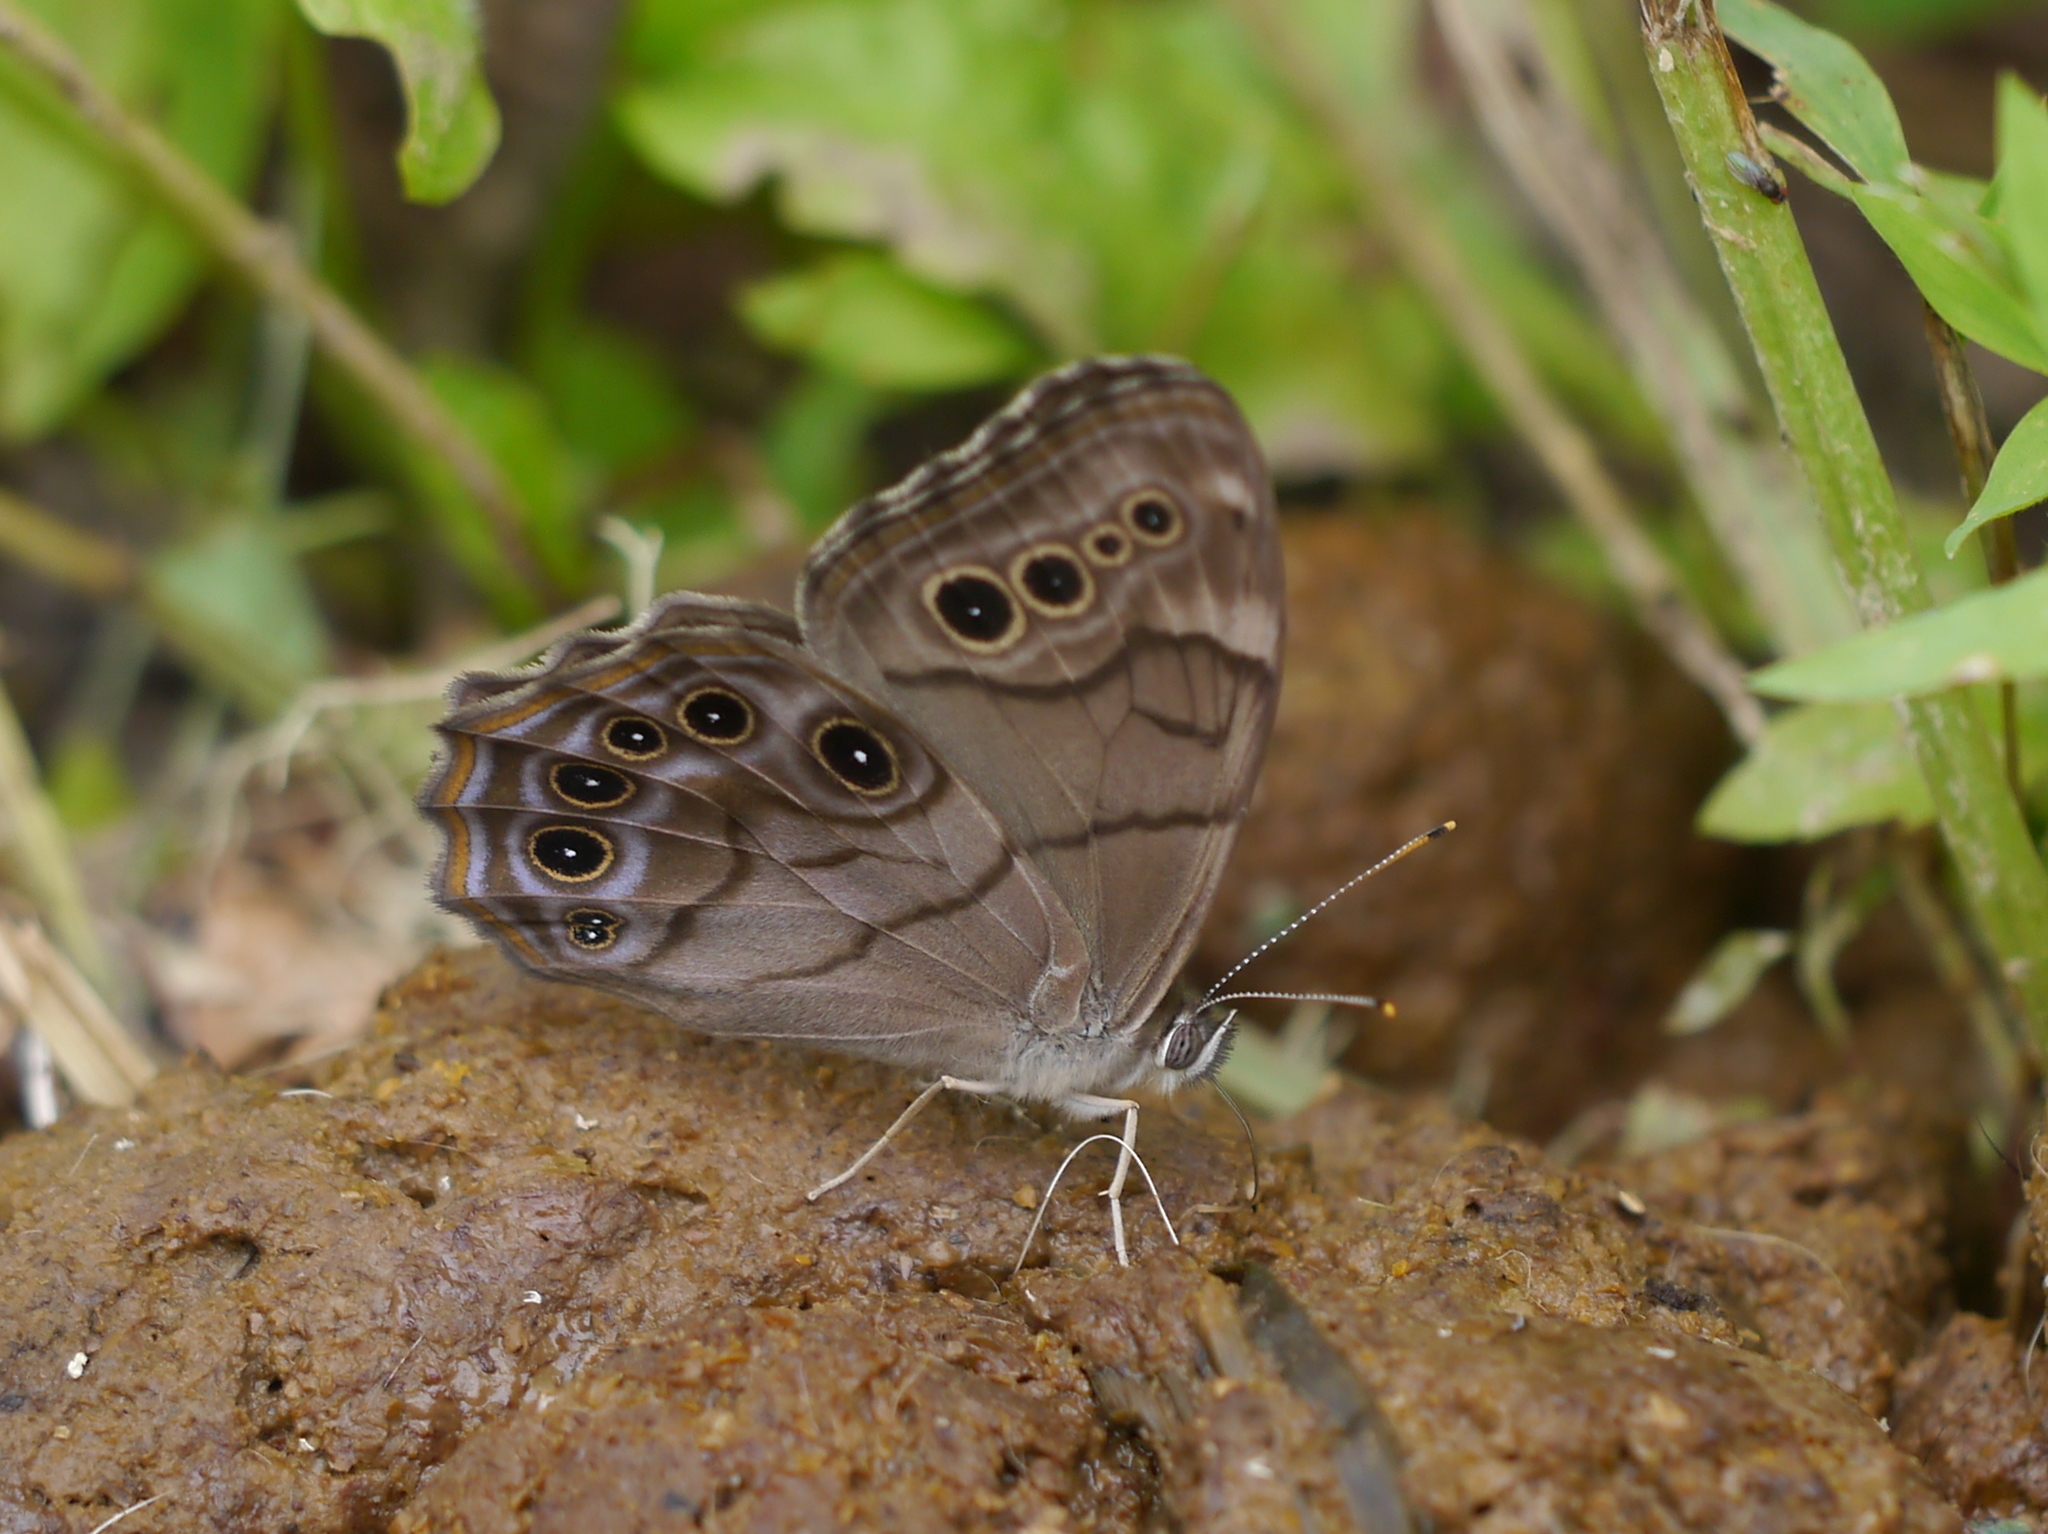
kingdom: Animalia
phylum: Arthropoda
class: Insecta
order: Lepidoptera
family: Nymphalidae
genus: Lethe
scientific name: Lethe anthedon
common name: Northern pearly-eye
